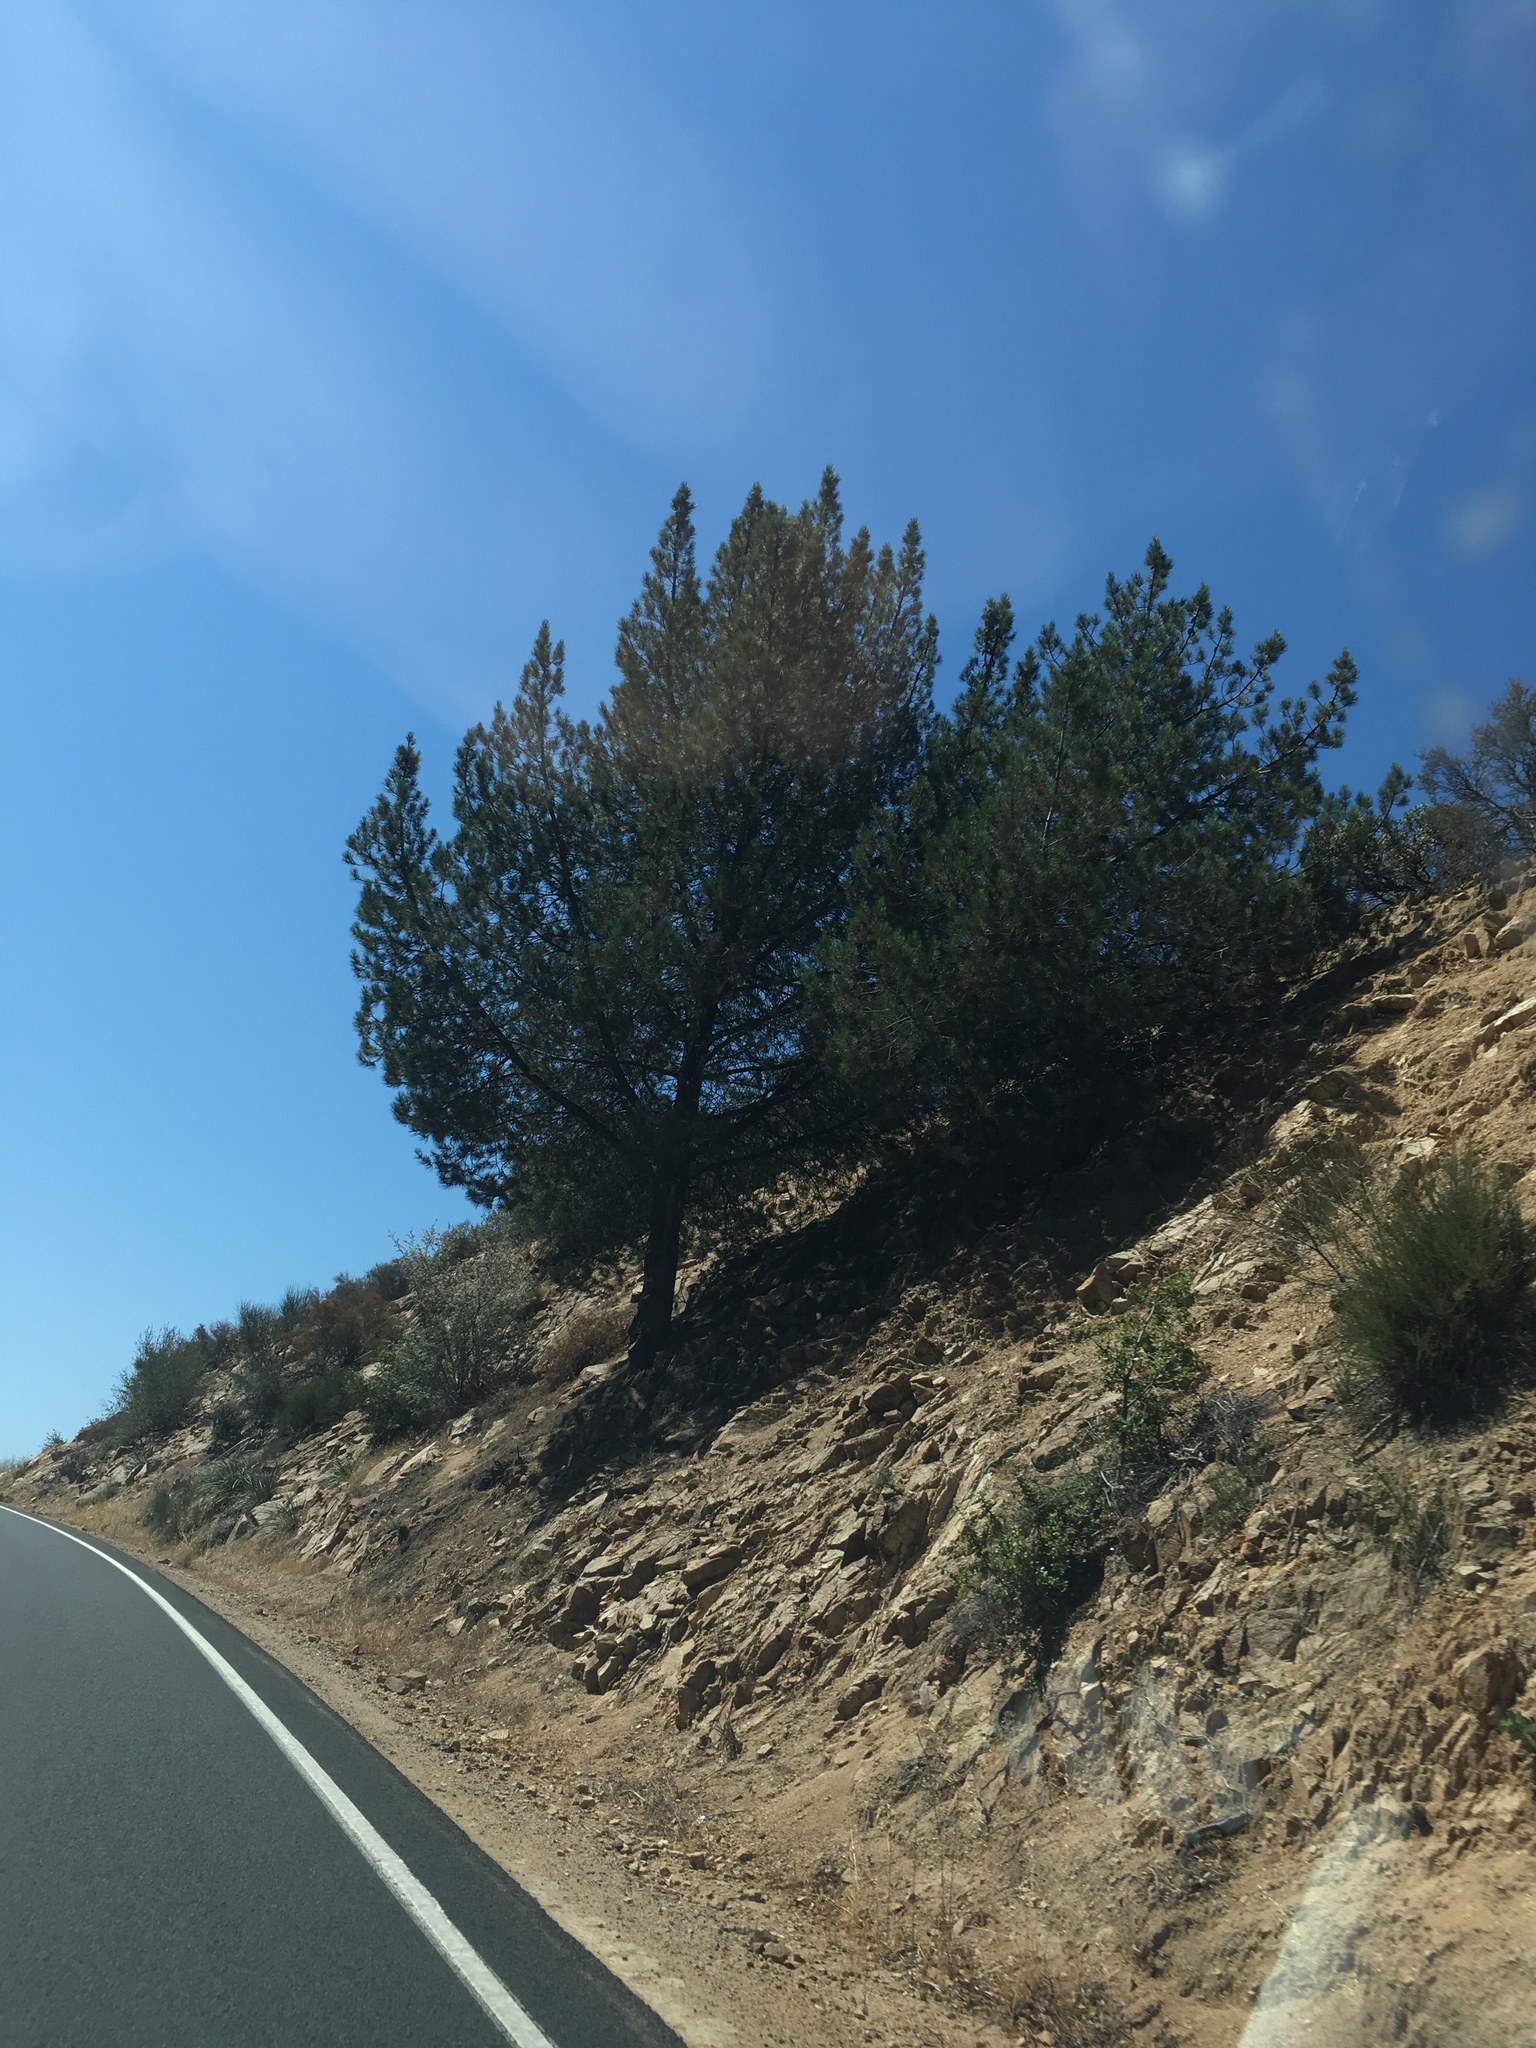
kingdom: Plantae
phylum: Tracheophyta
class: Pinopsida
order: Pinales
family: Pinaceae
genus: Pinus
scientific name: Pinus attenuata
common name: Knobcone pine
